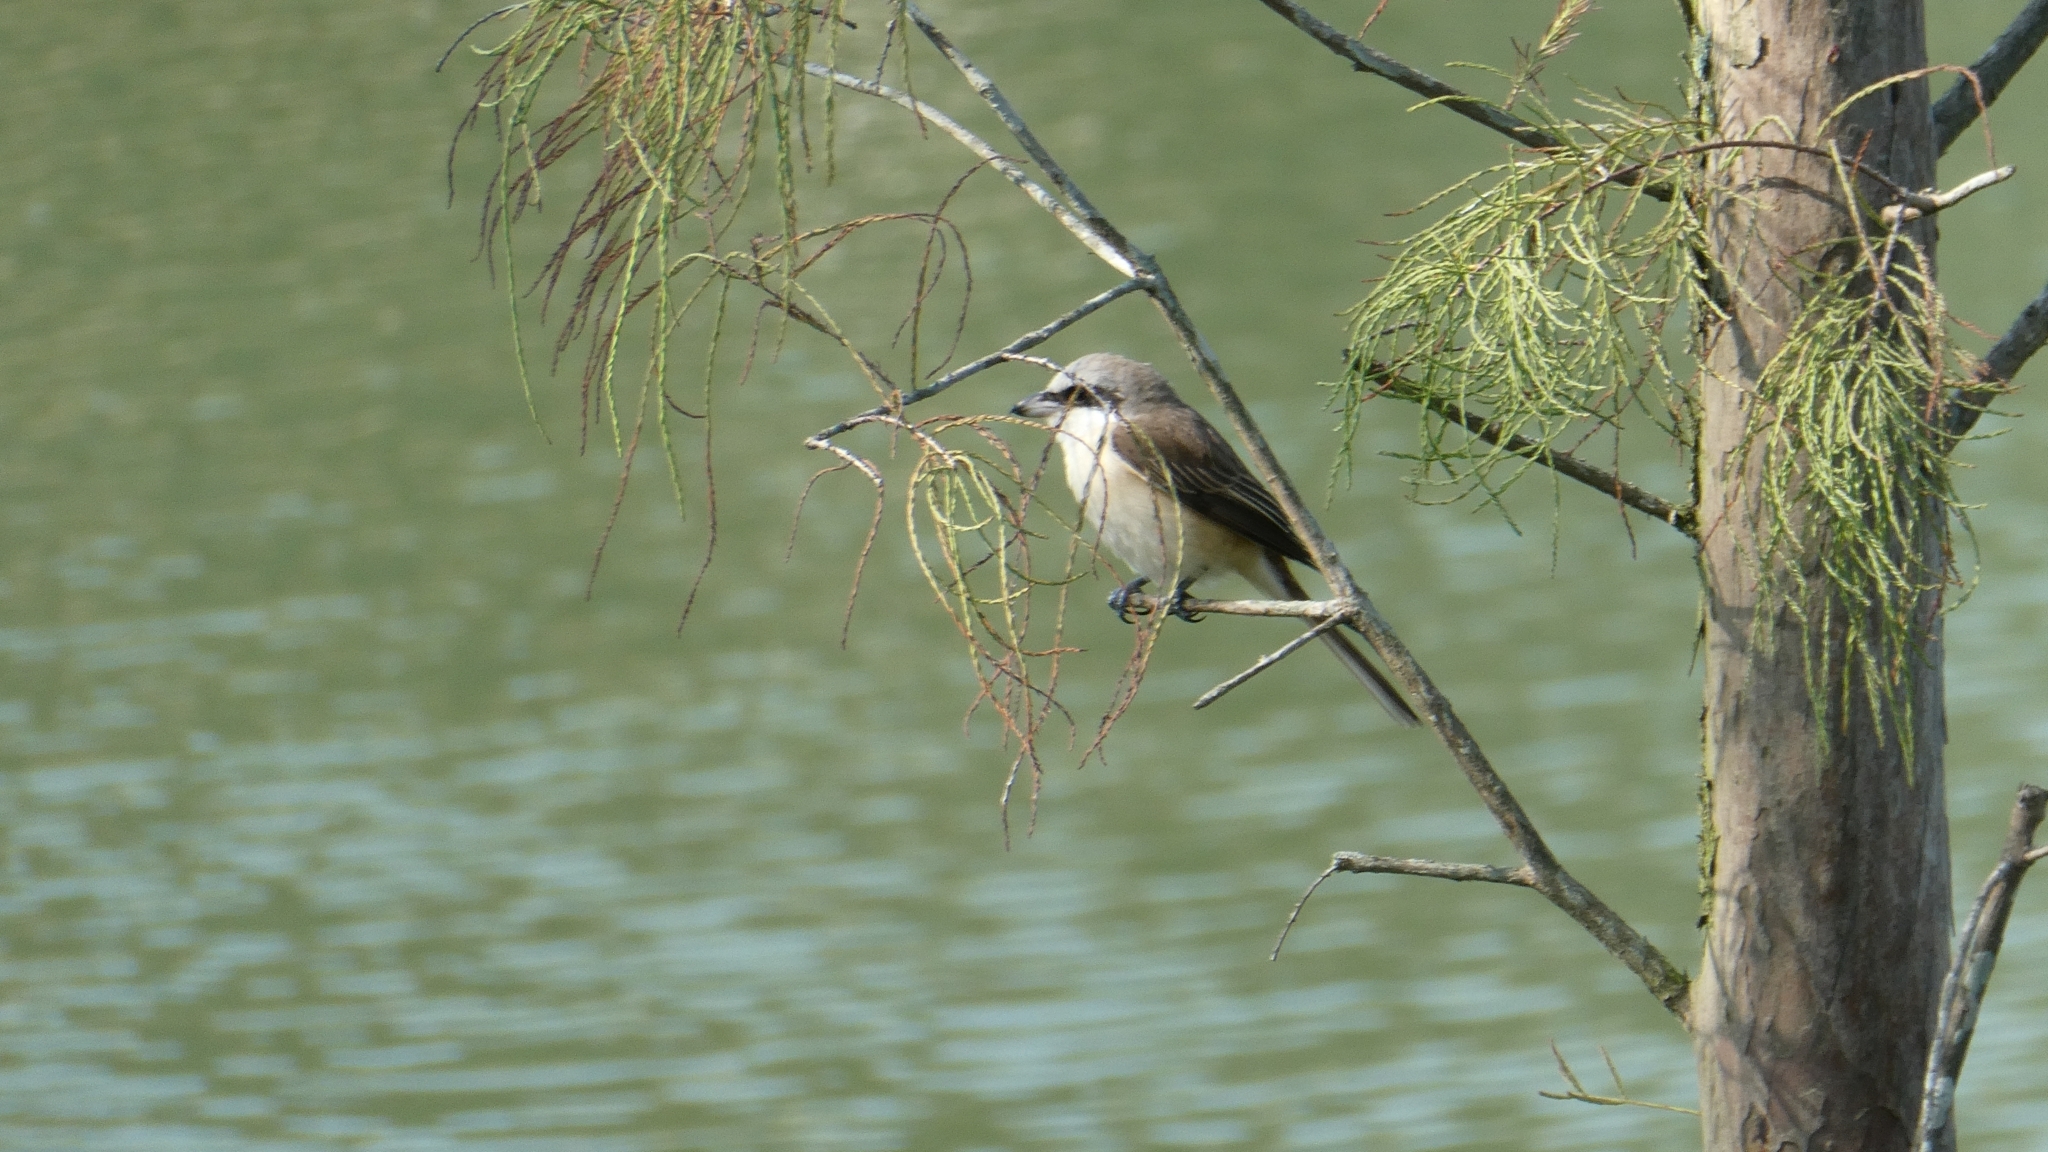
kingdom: Animalia
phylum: Chordata
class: Aves
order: Passeriformes
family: Laniidae
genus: Lanius
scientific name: Lanius cristatus
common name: Brown shrike
